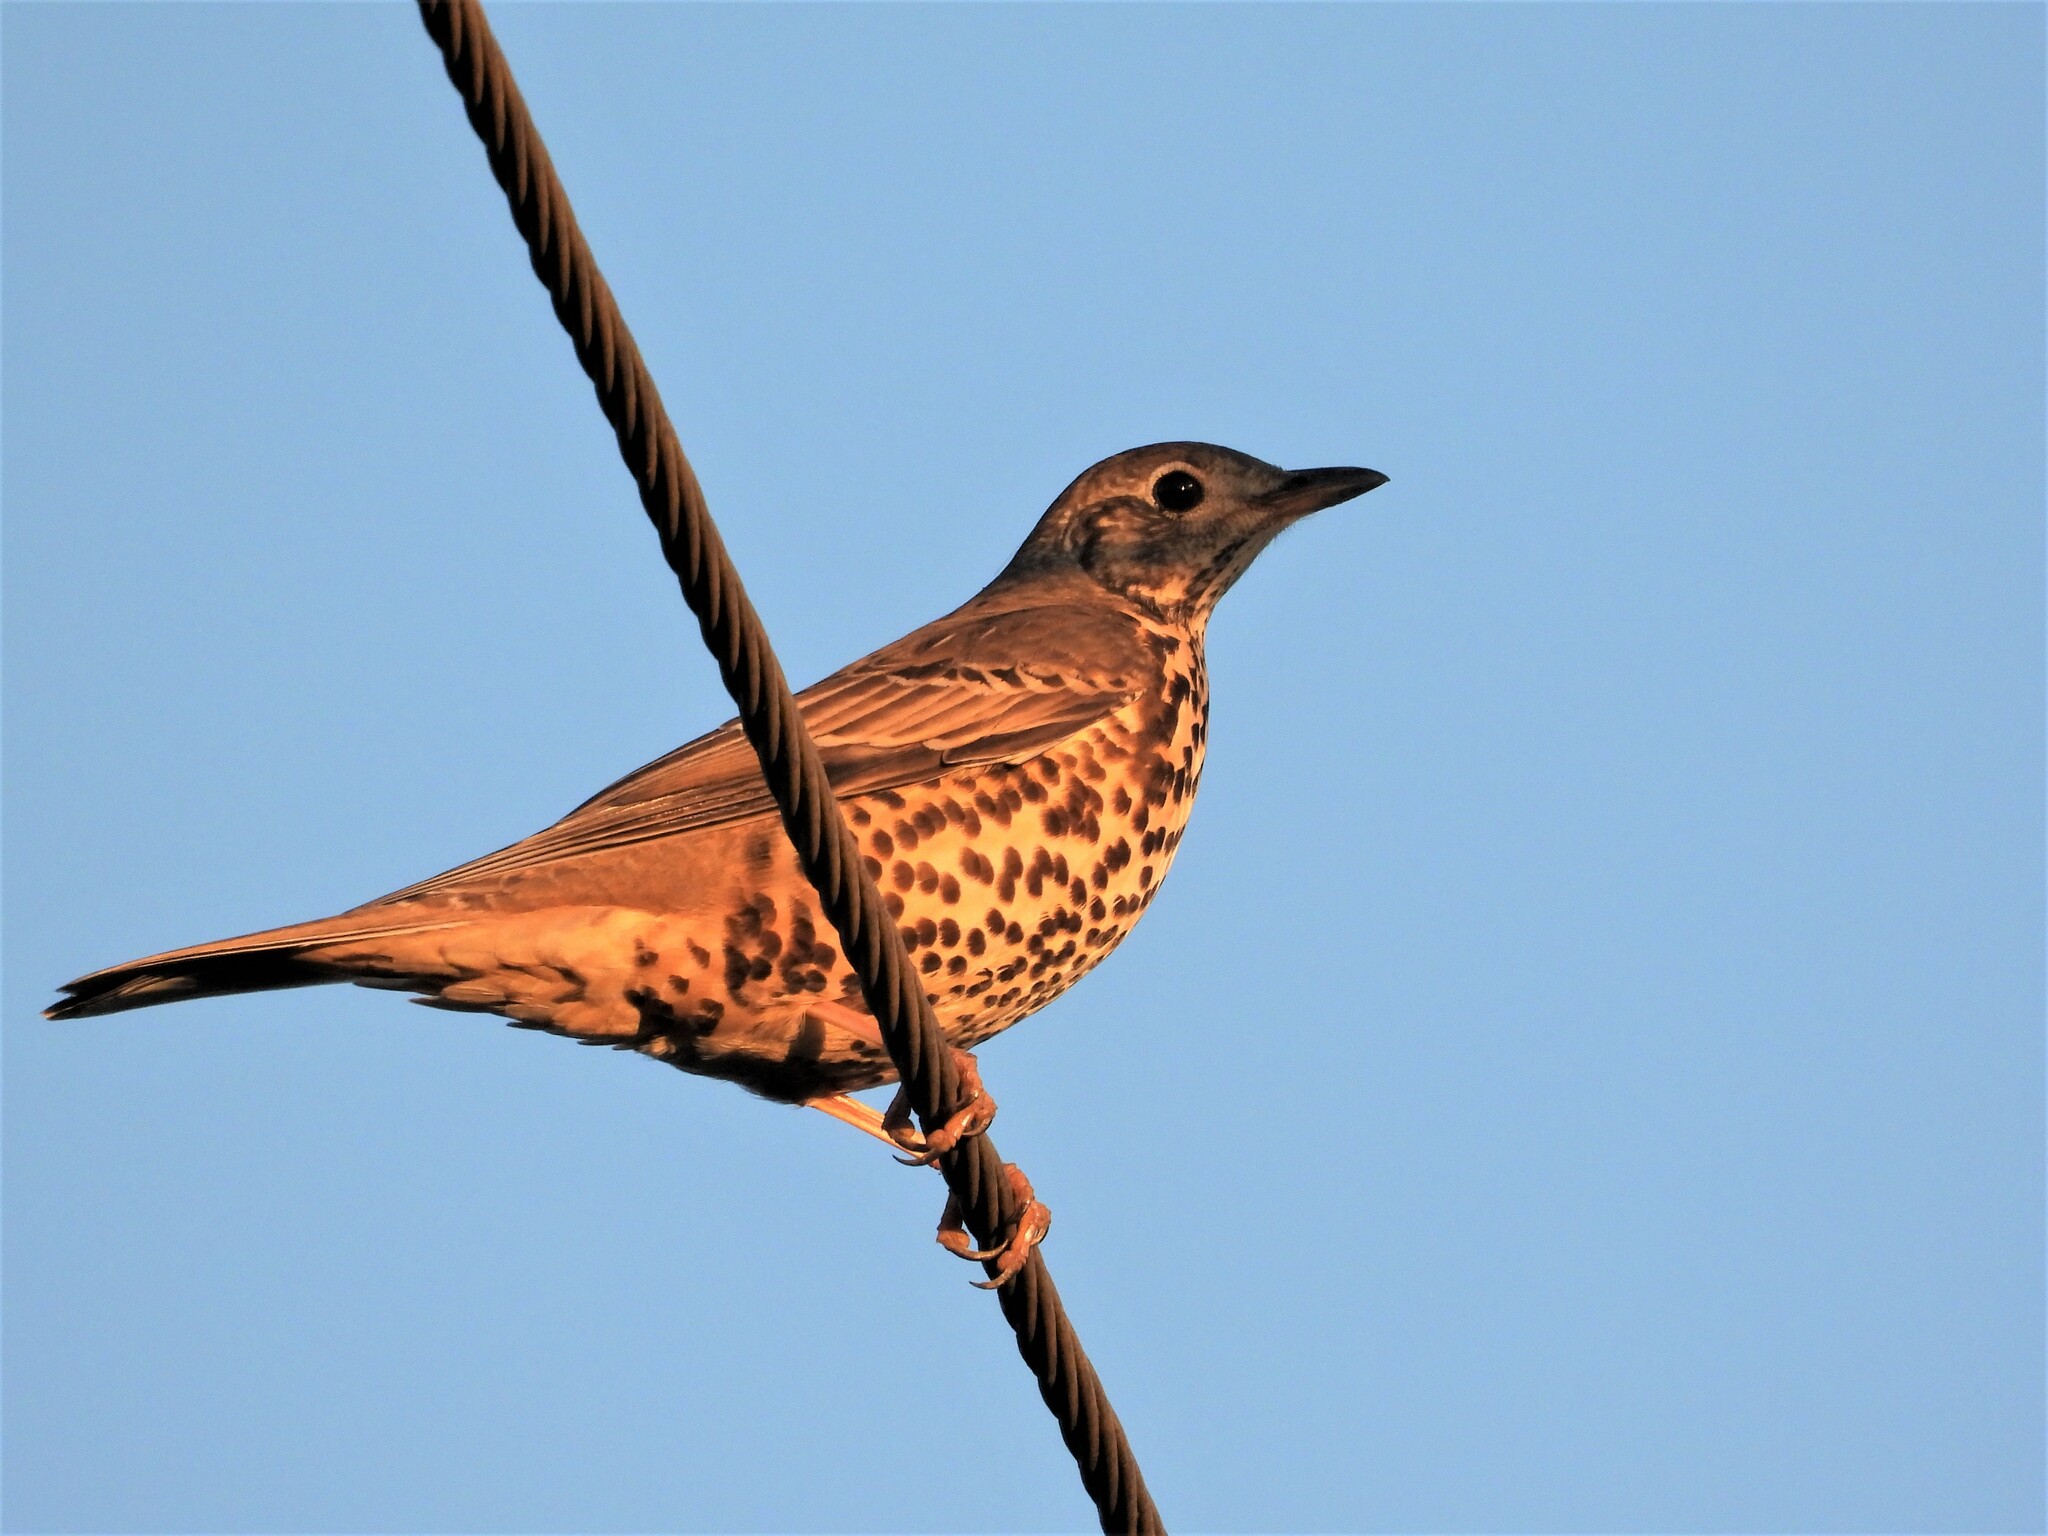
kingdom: Animalia
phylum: Chordata
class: Aves
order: Passeriformes
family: Turdidae
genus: Turdus
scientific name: Turdus viscivorus
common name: Mistle thrush
